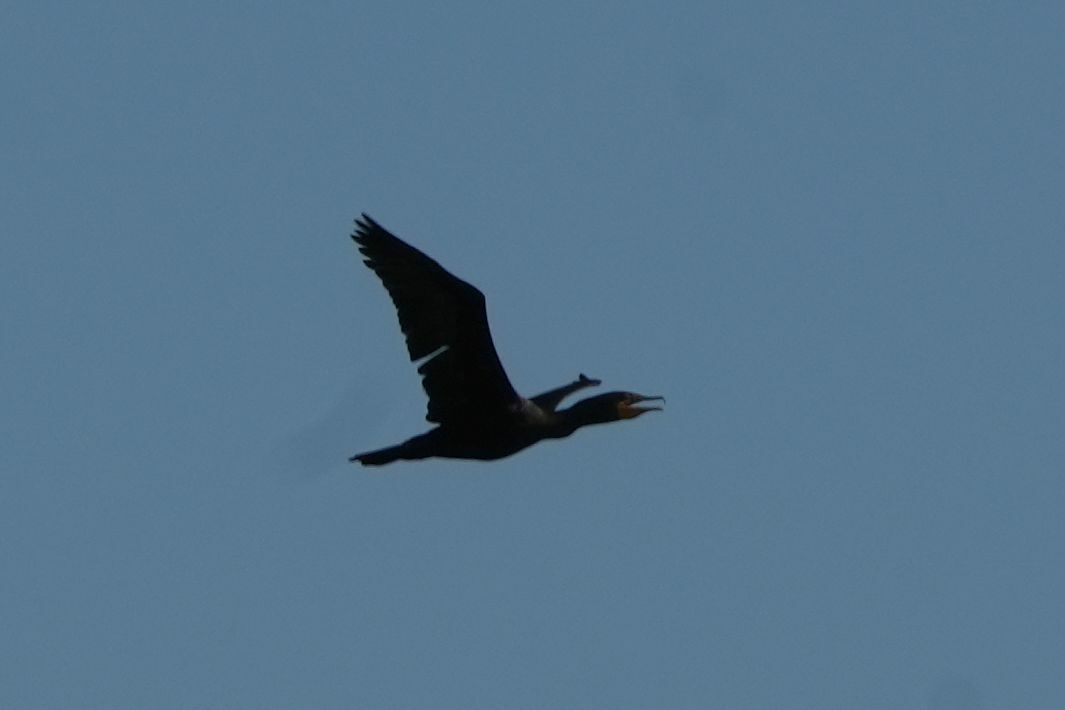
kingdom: Animalia
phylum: Chordata
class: Aves
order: Suliformes
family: Phalacrocoracidae
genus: Phalacrocorax
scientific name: Phalacrocorax auritus
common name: Double-crested cormorant
